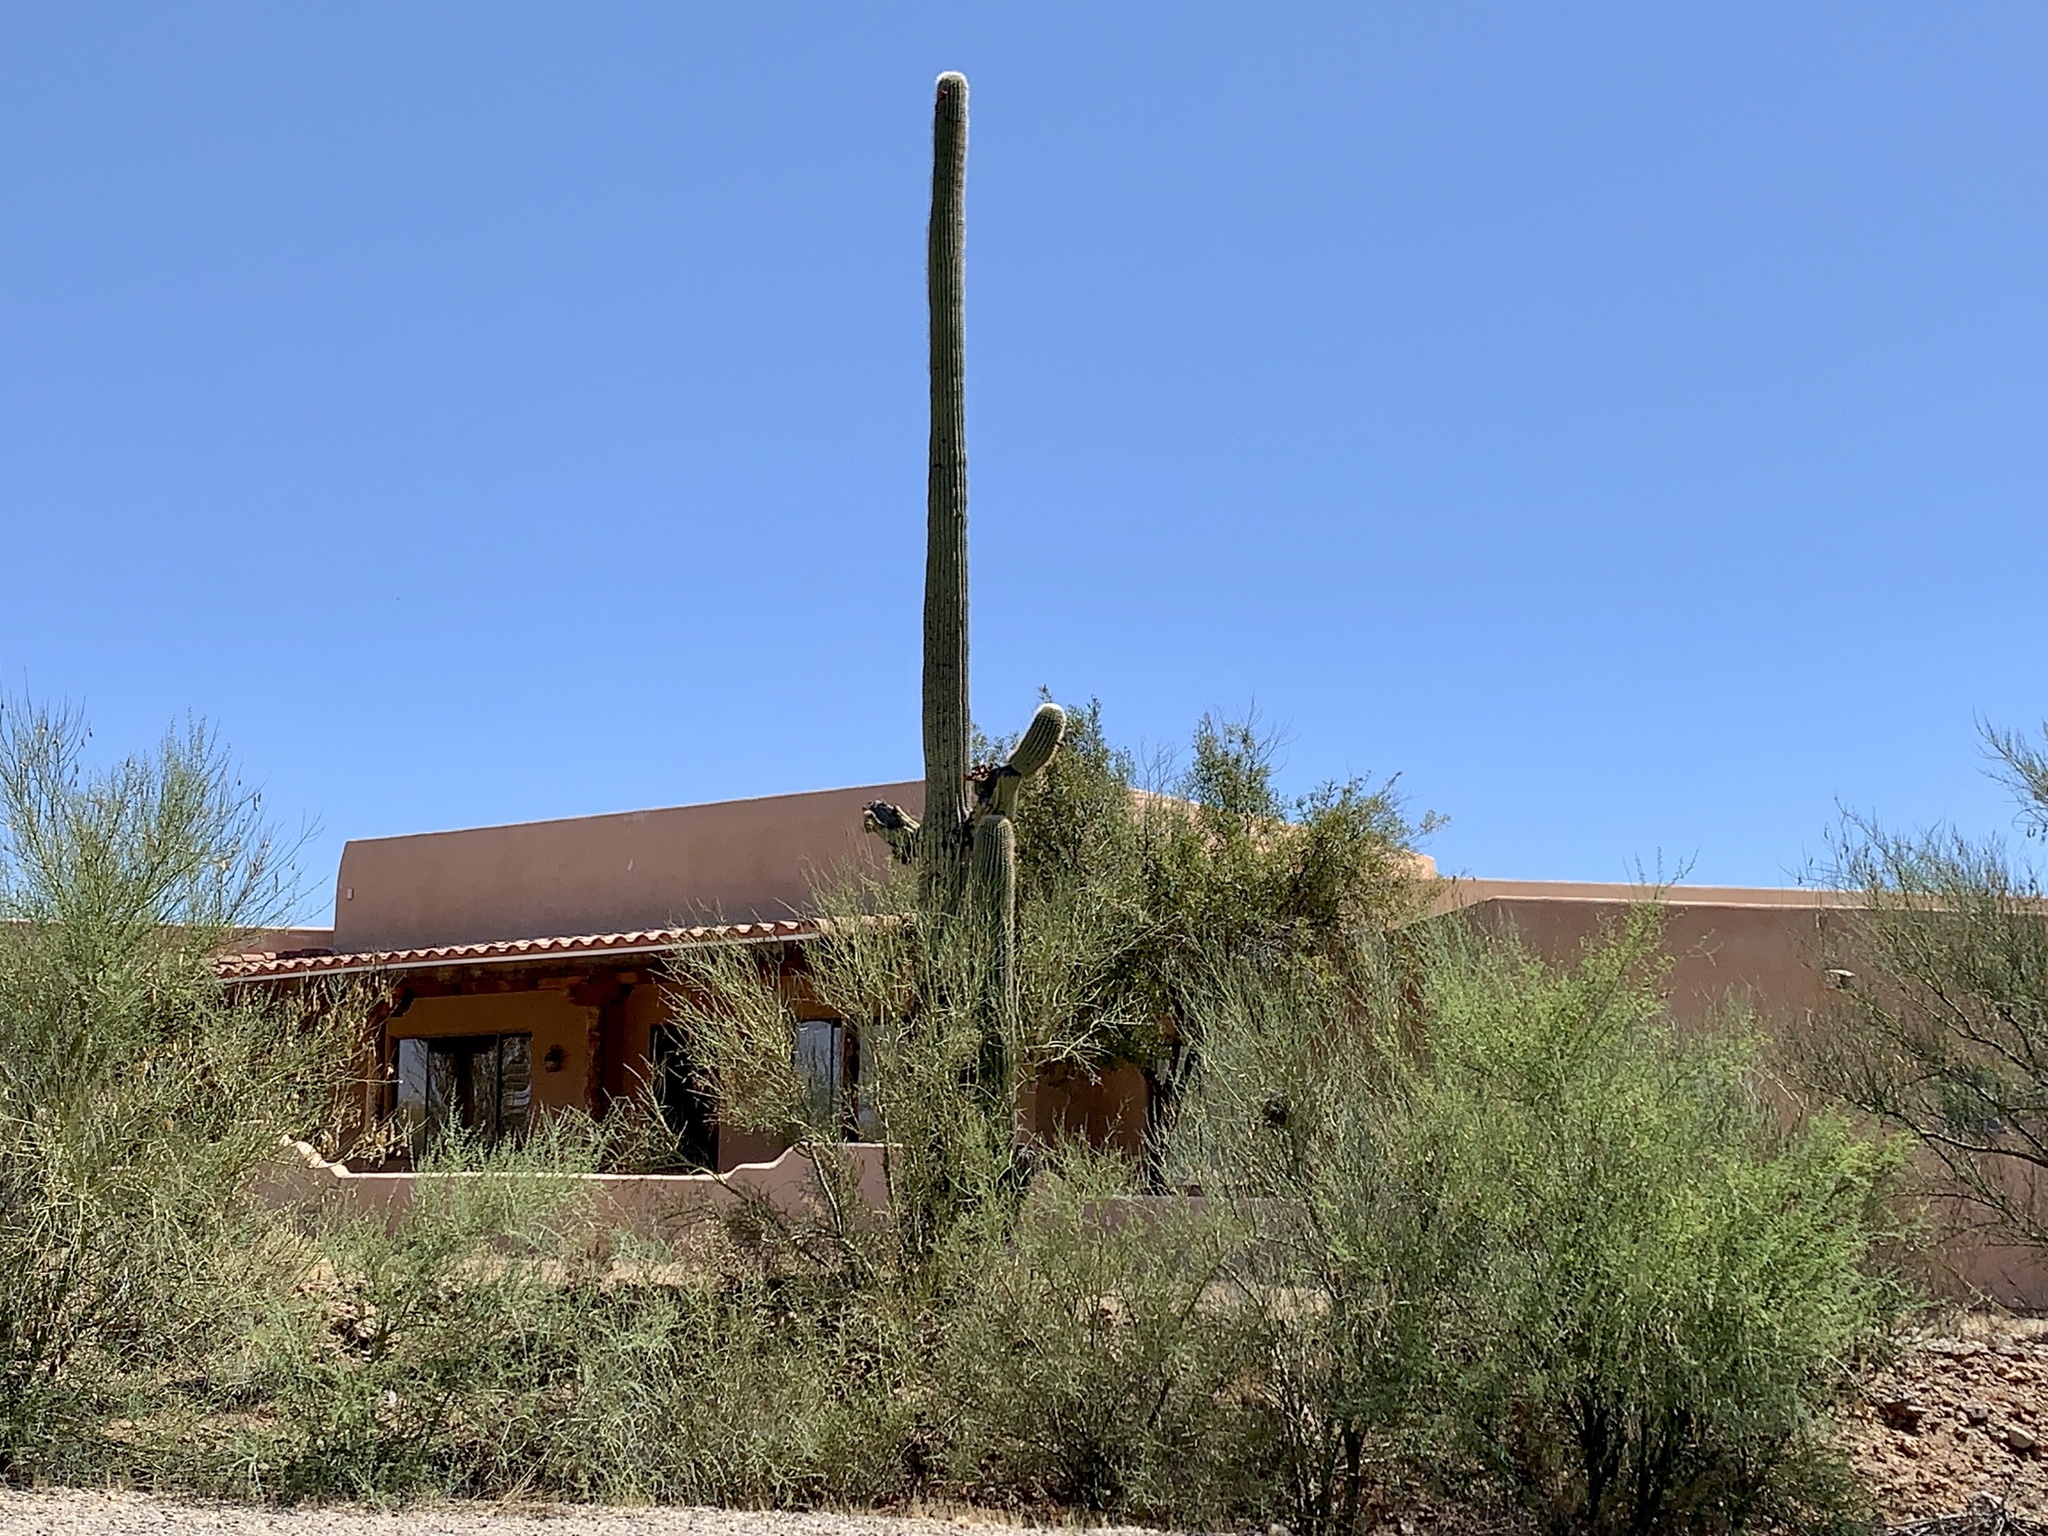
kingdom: Plantae
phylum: Tracheophyta
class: Magnoliopsida
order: Caryophyllales
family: Cactaceae
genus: Carnegiea
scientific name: Carnegiea gigantea
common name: Saguaro
